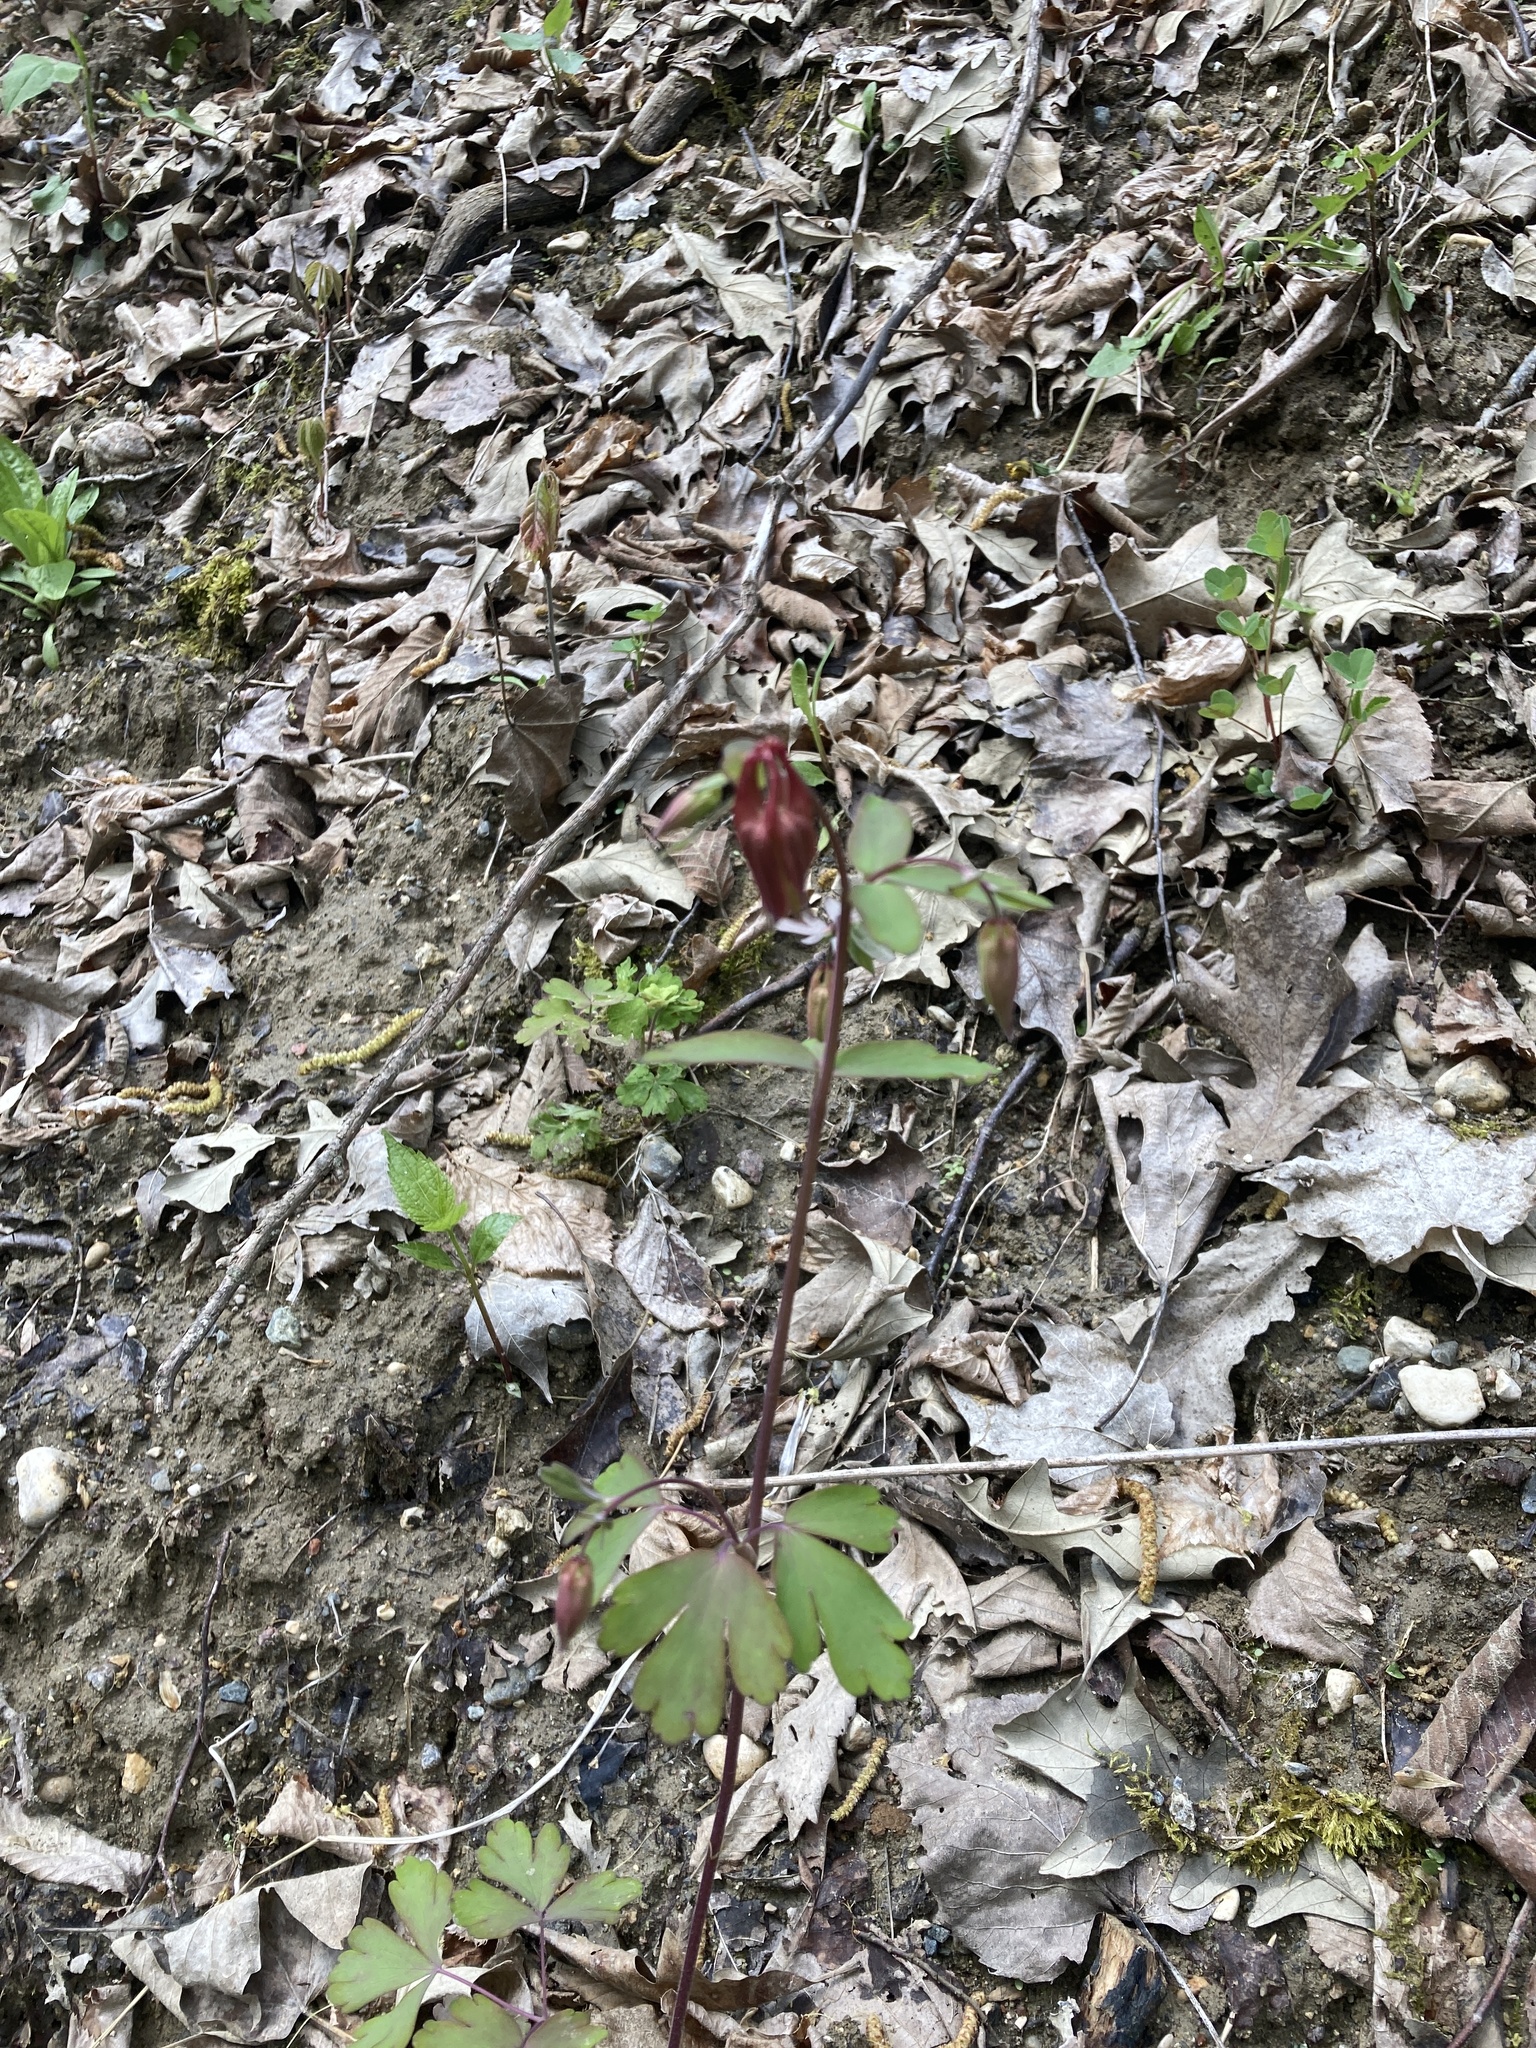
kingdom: Plantae
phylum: Tracheophyta
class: Magnoliopsida
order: Ranunculales
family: Ranunculaceae
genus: Aquilegia
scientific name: Aquilegia canadensis
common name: American columbine
